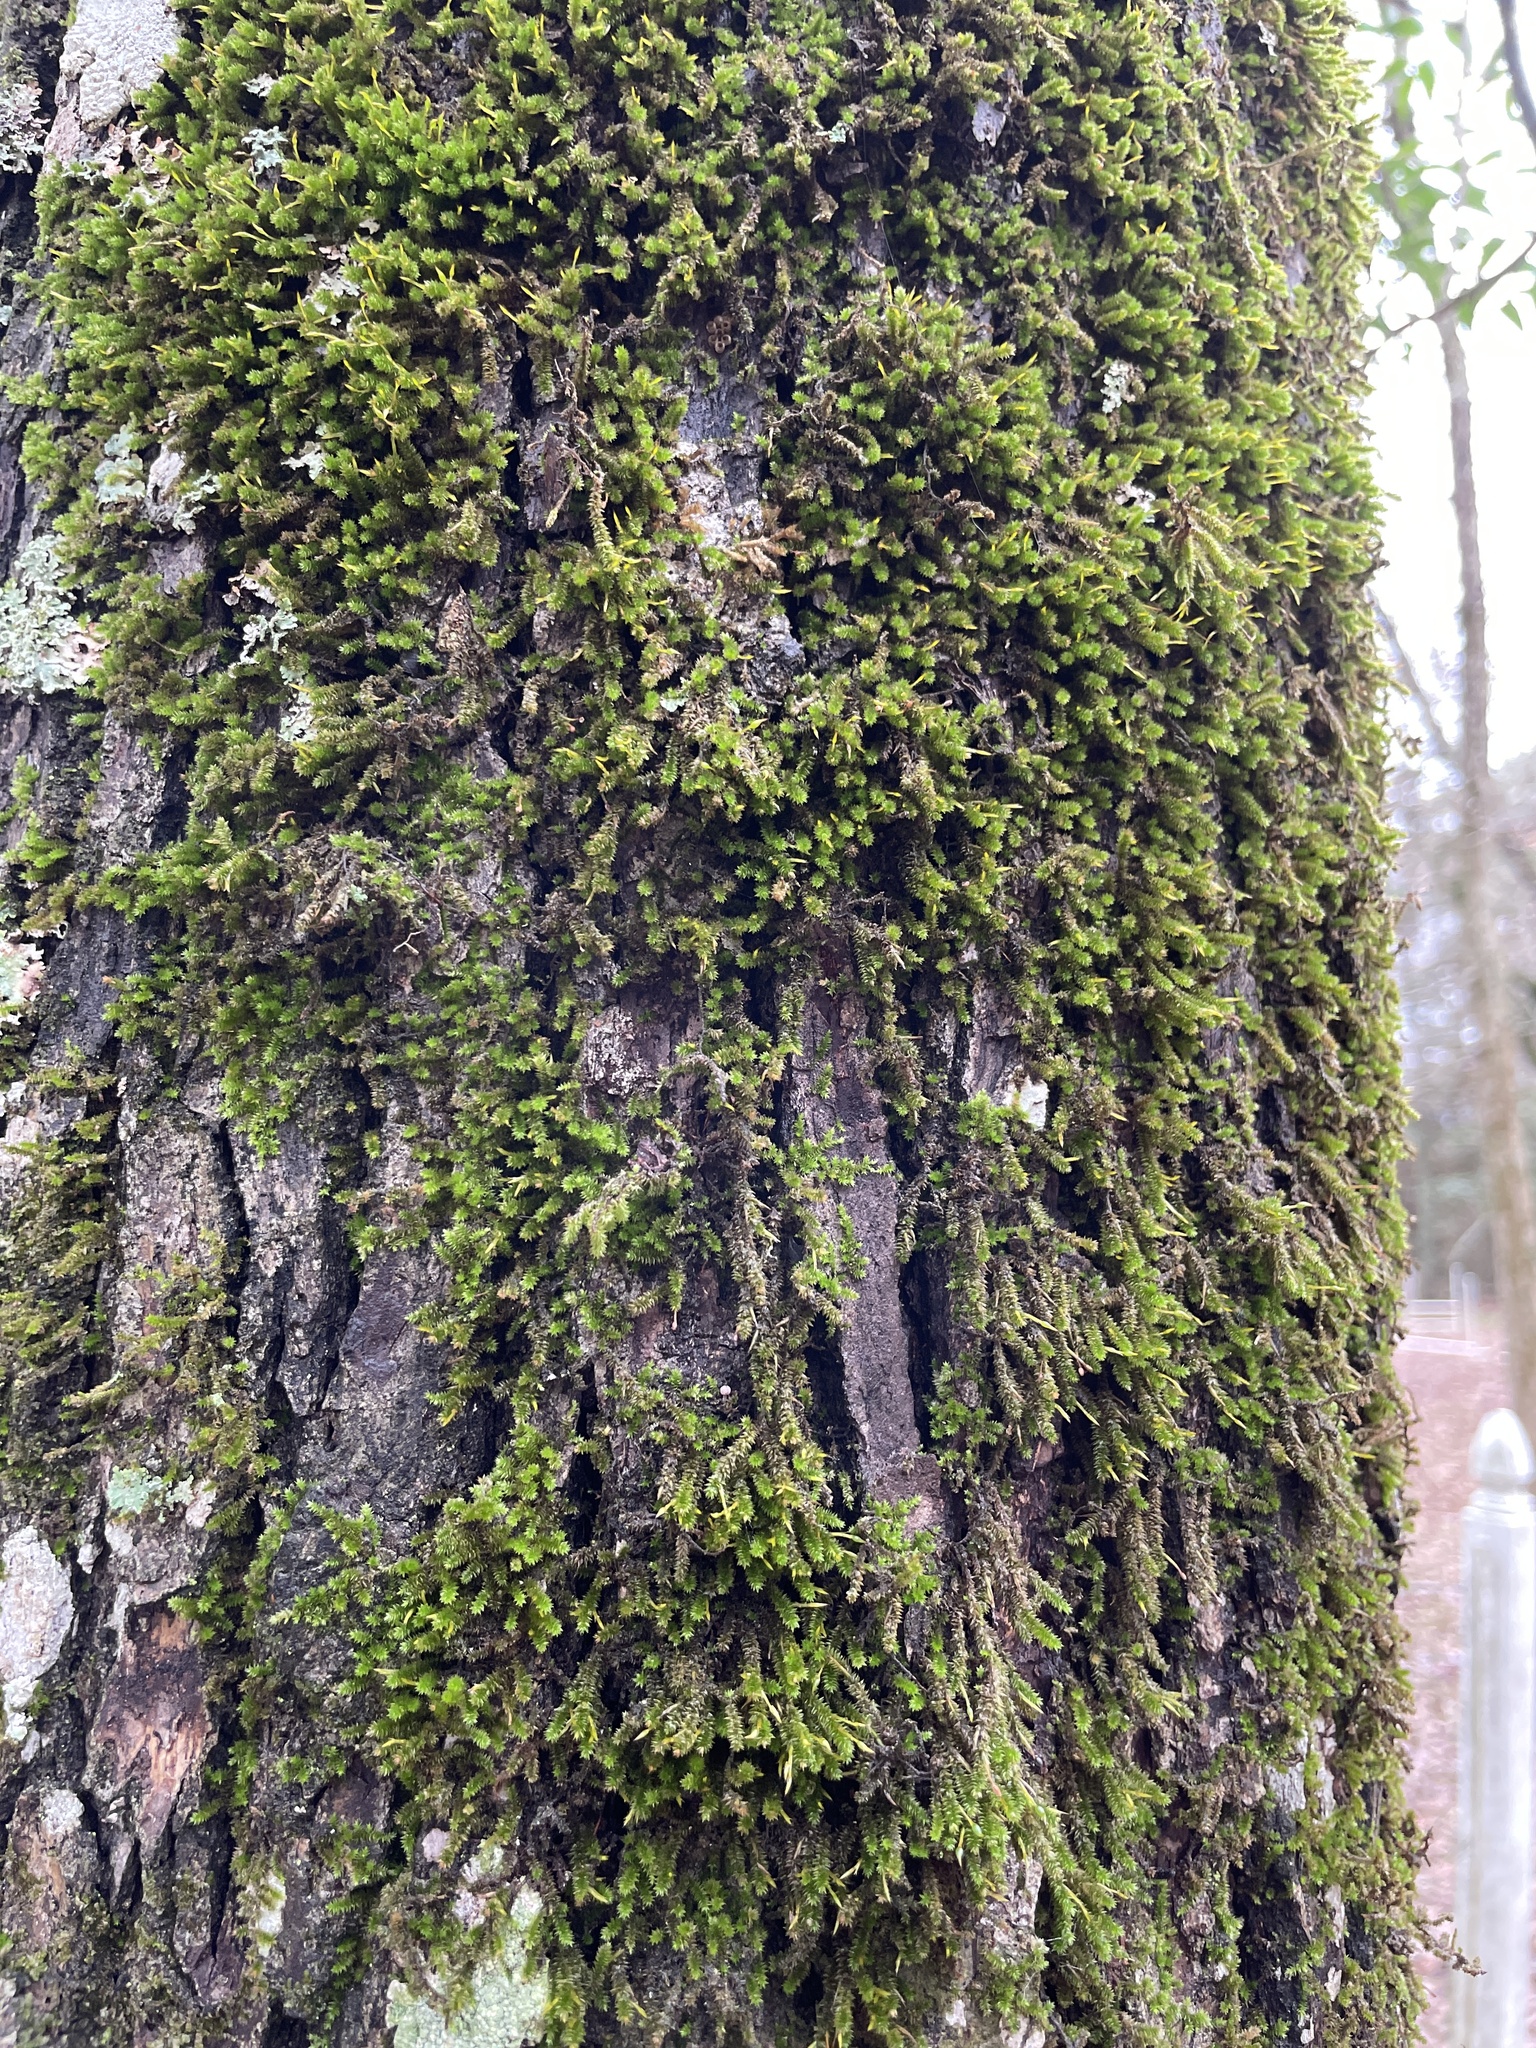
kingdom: Plantae
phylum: Bryophyta
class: Bryopsida
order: Hypnales
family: Leucodontaceae
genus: Leucodon
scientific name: Leucodon julaceus
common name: Smooth hook moss
